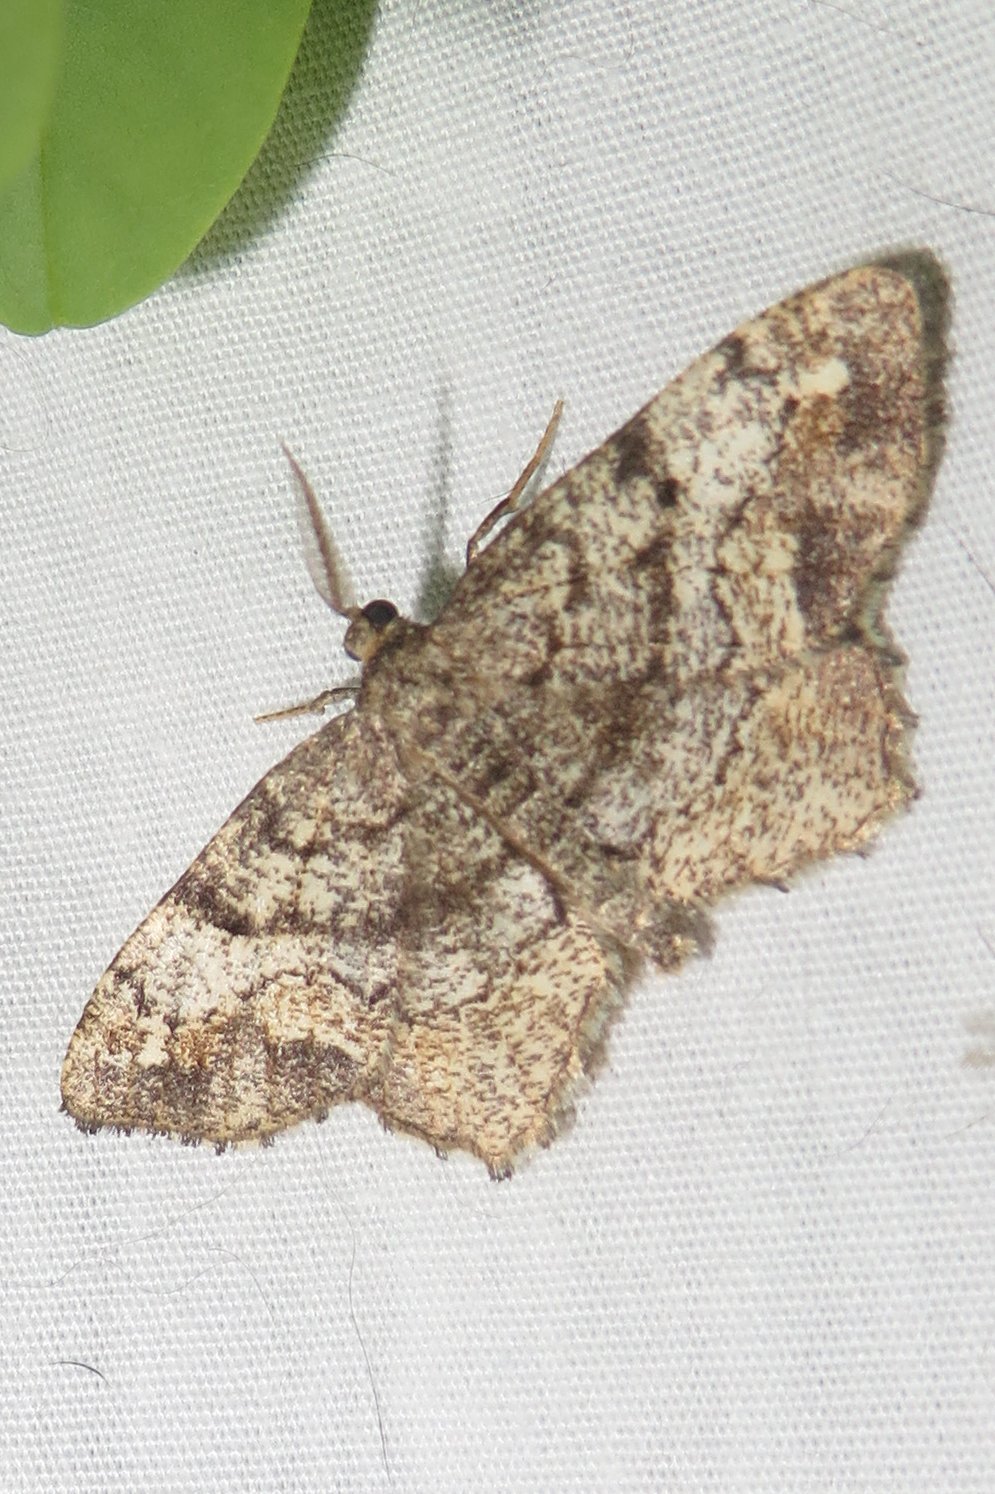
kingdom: Animalia
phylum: Arthropoda
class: Insecta
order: Lepidoptera
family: Geometridae
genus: Hypagyrtis
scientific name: Hypagyrtis unipunctata
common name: One-spotted variant
